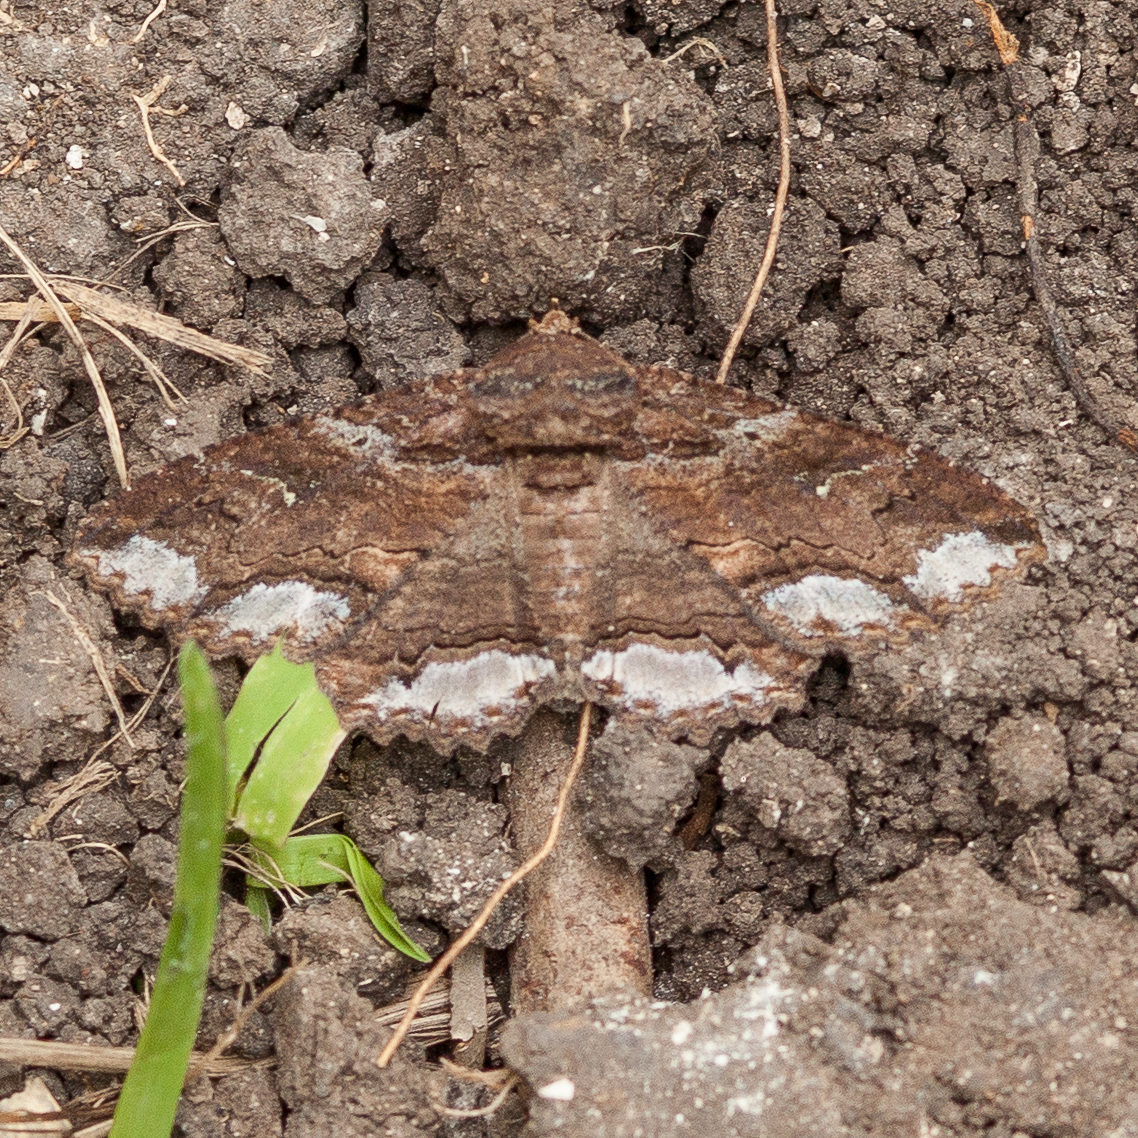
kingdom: Animalia
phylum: Arthropoda
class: Insecta
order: Lepidoptera
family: Erebidae
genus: Zale
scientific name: Zale lunata
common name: Lunate zale moth
